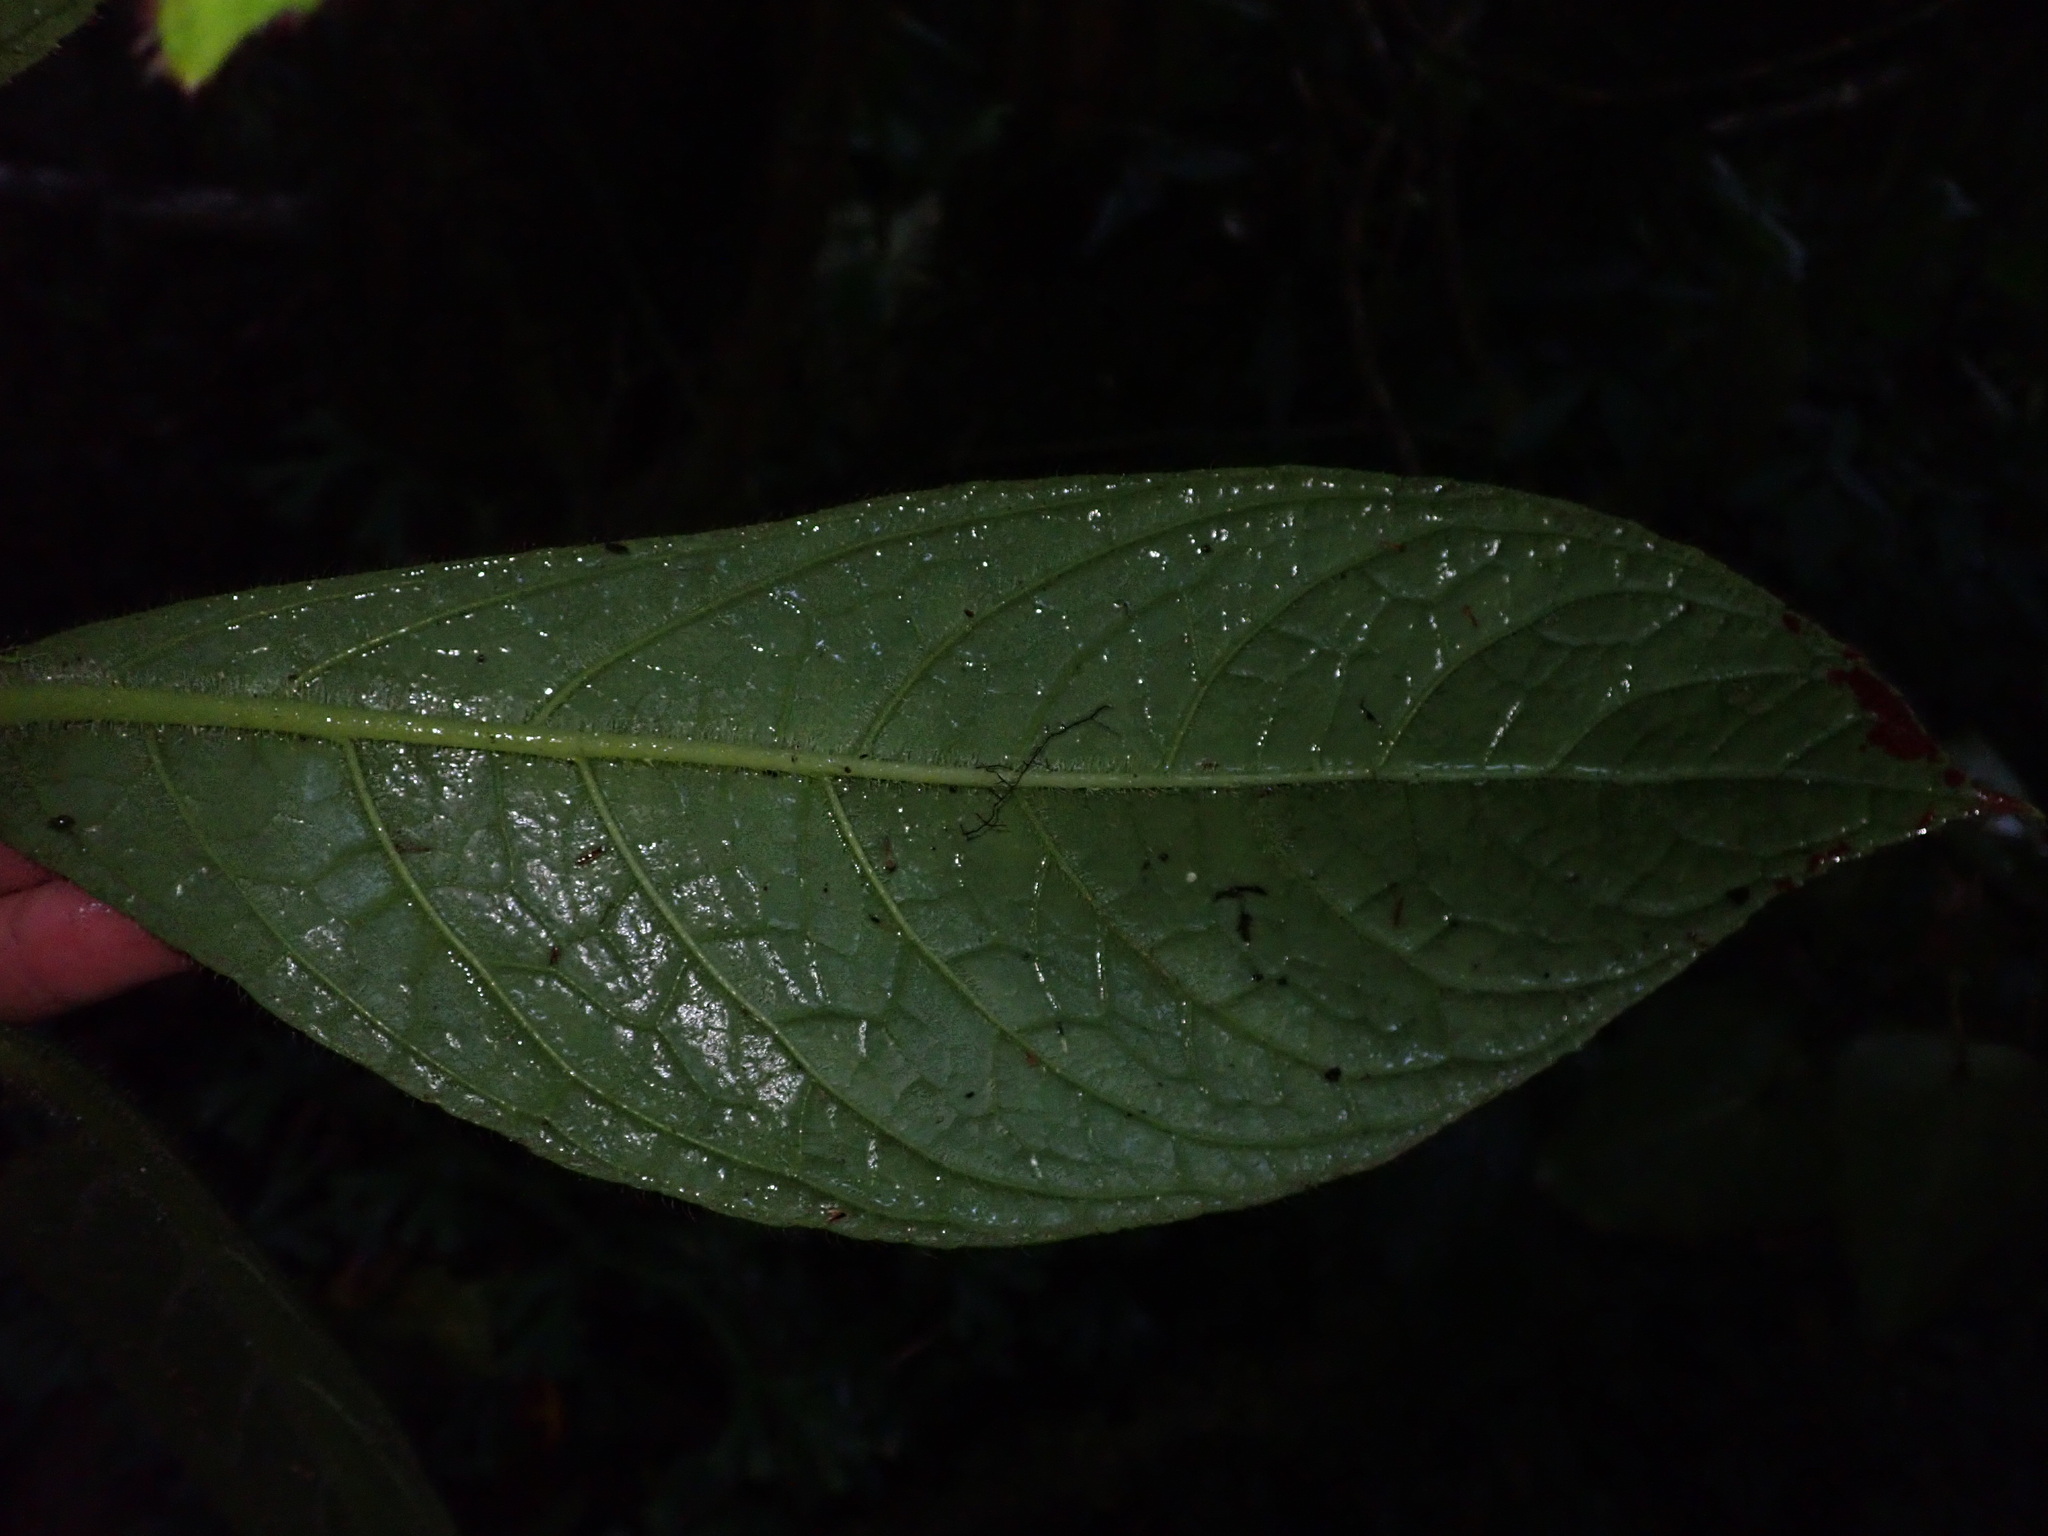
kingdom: Plantae
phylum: Tracheophyta
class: Magnoliopsida
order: Lamiales
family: Gesneriaceae
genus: Columnea
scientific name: Columnea fuscihirta
